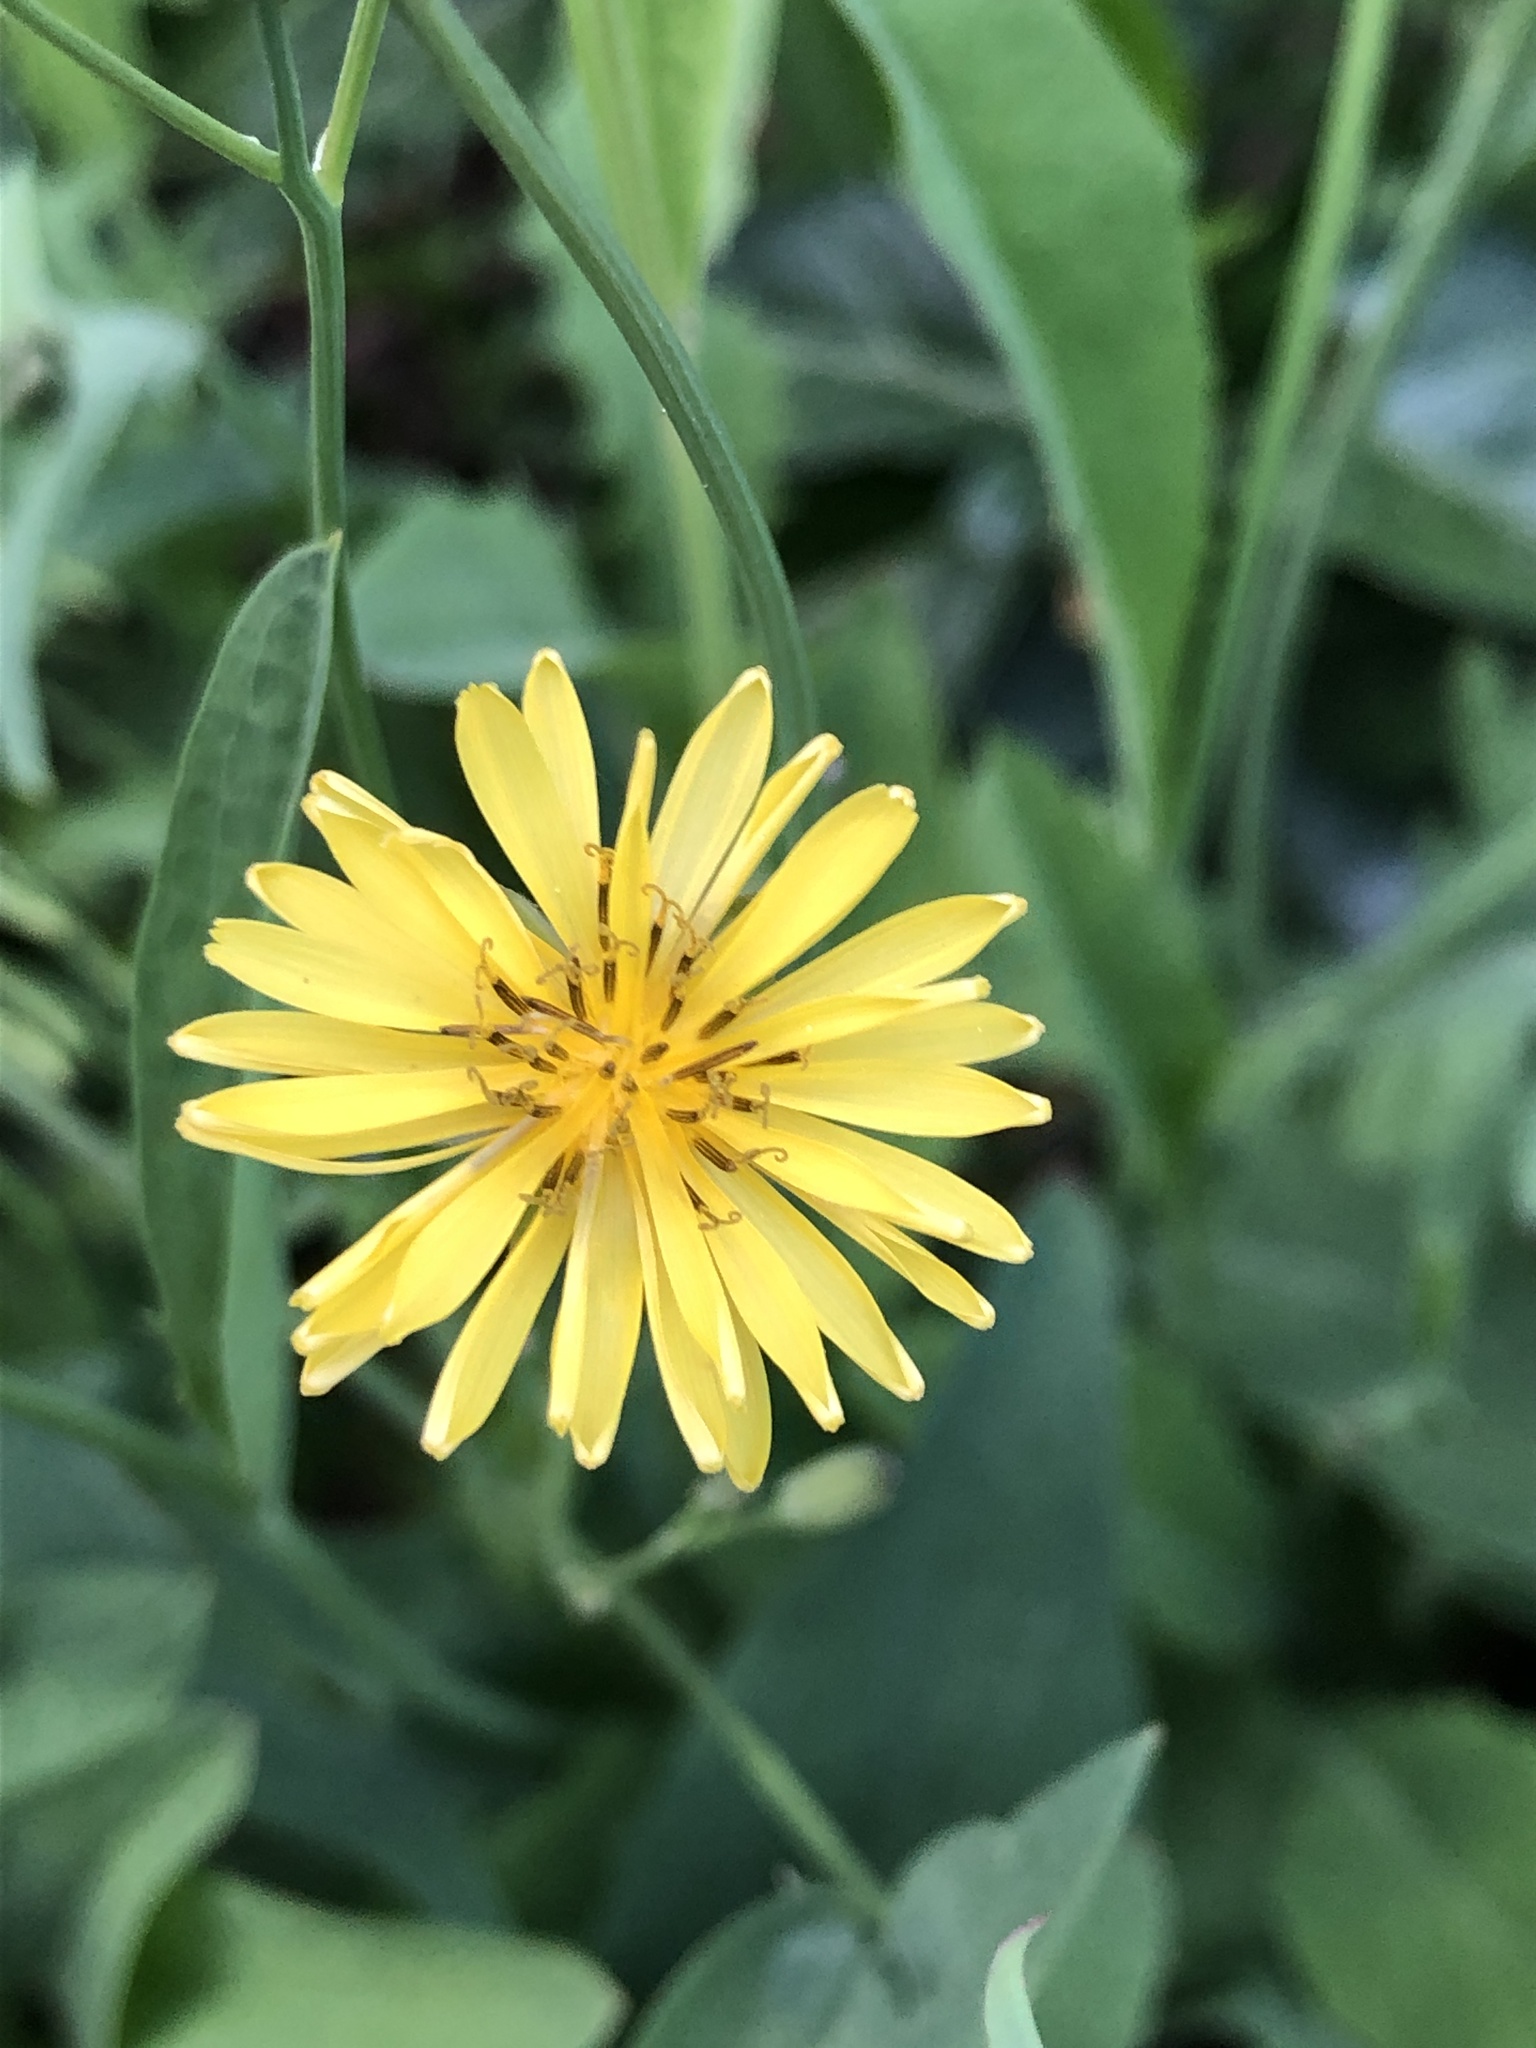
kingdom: Plantae
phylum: Tracheophyta
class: Magnoliopsida
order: Asterales
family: Asteraceae
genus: Ixeris
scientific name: Ixeris chinensis
